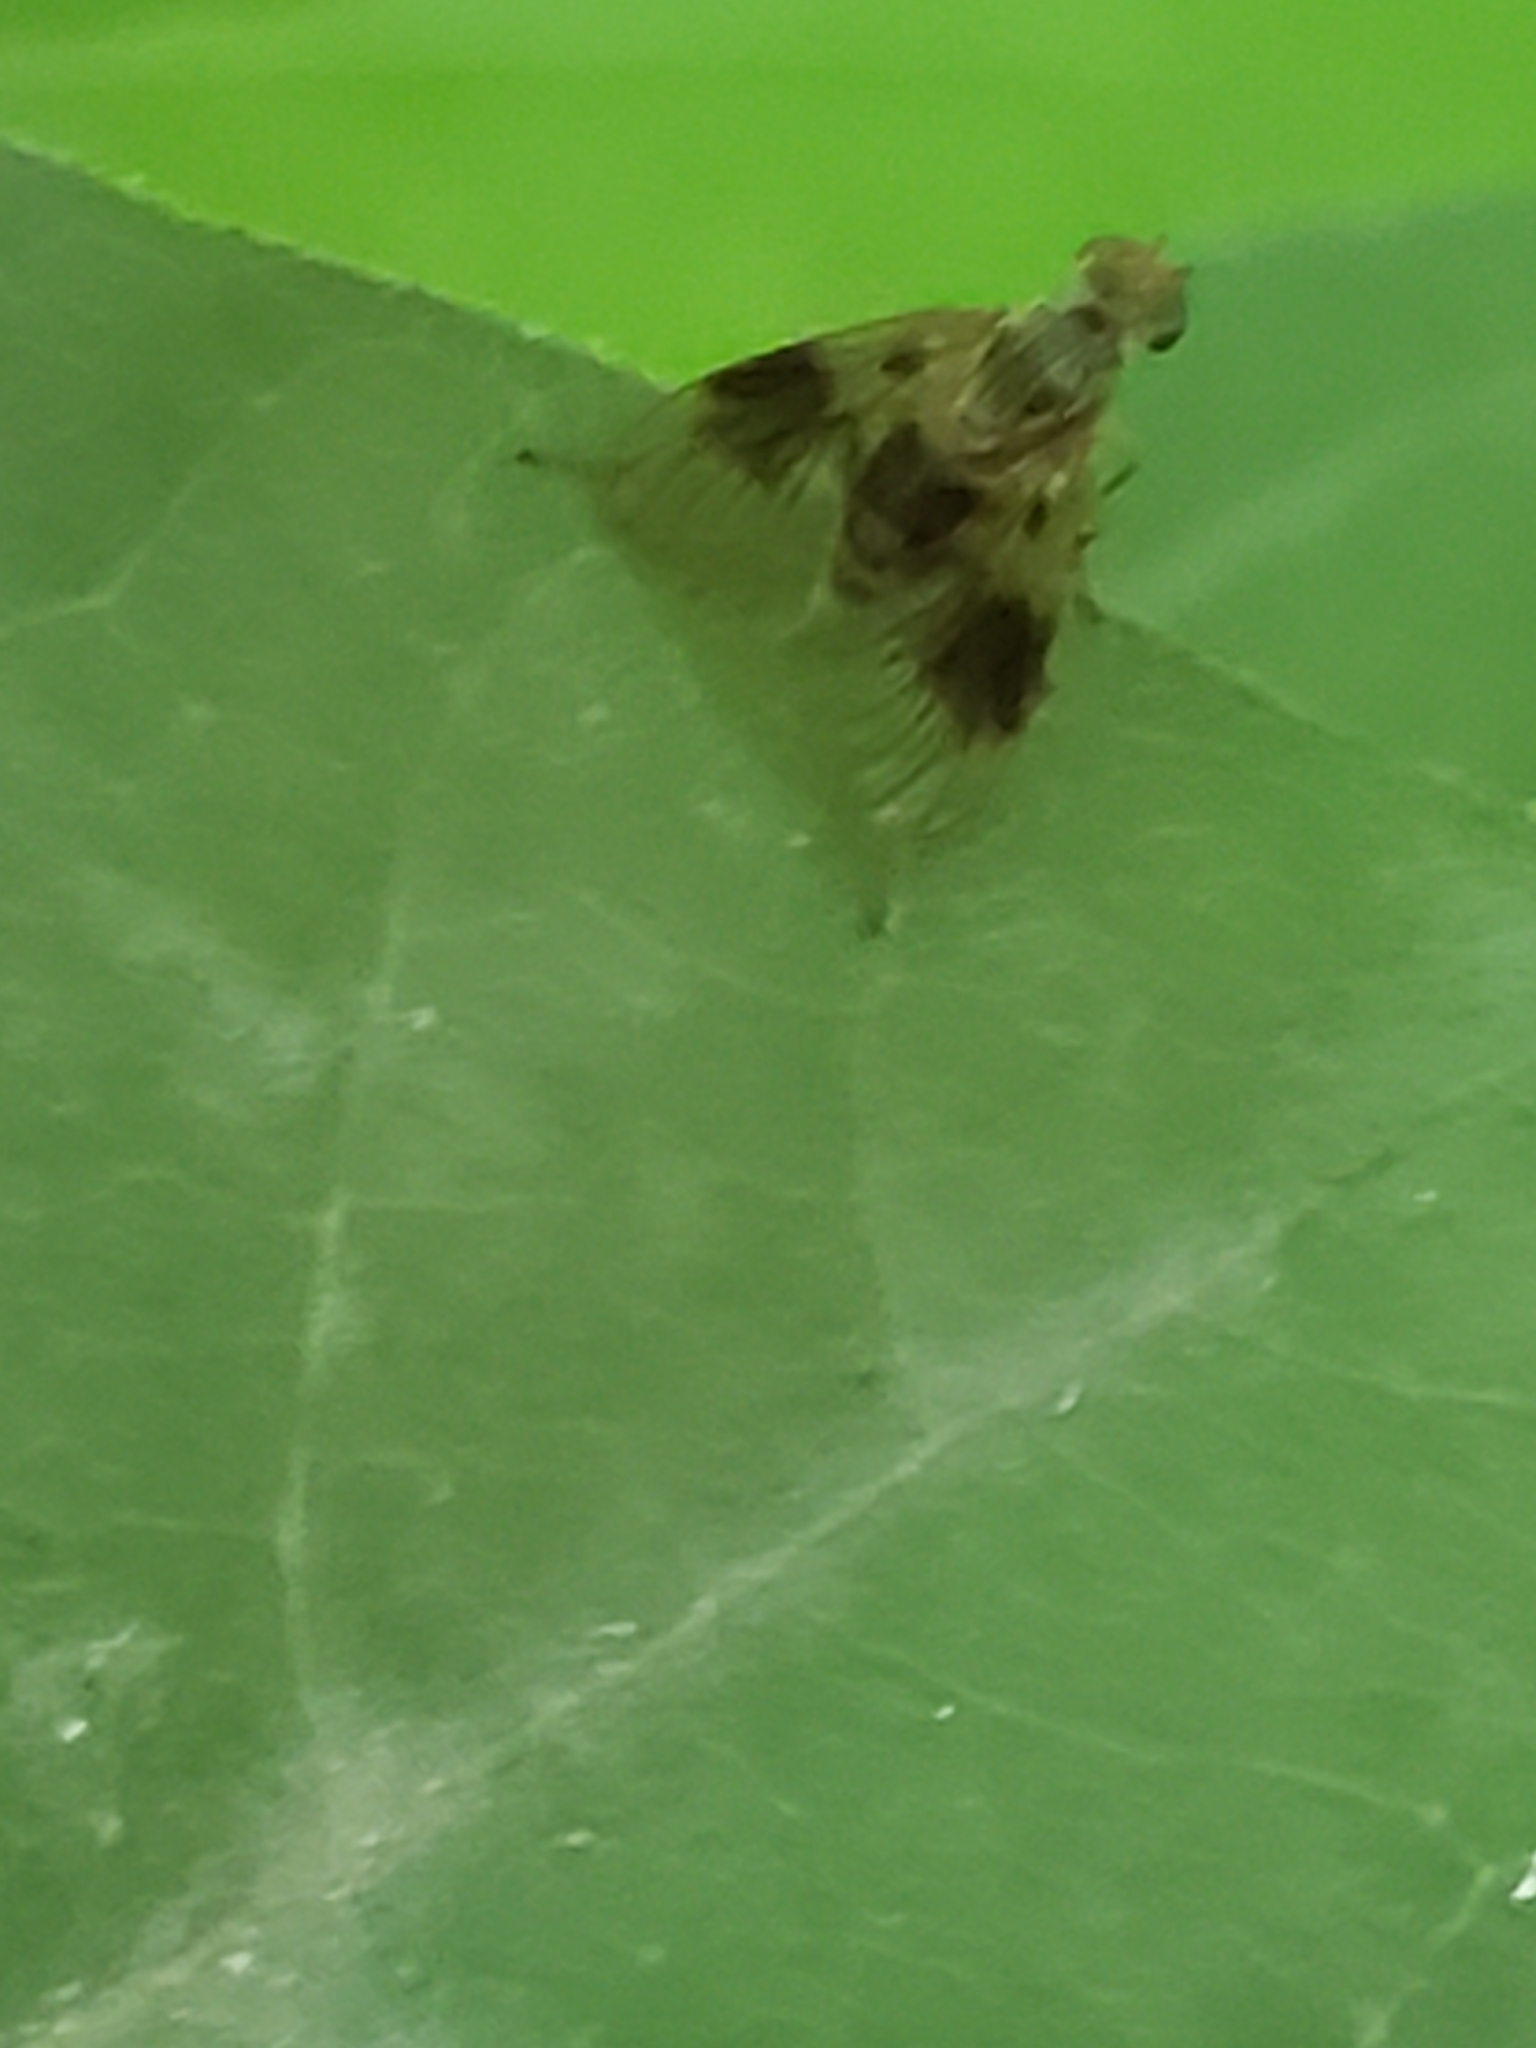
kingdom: Animalia
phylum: Arthropoda
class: Insecta
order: Diptera
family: Rhagionidae
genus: Chrysopilus
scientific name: Chrysopilus quadratus
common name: Quadrate snipe fly
